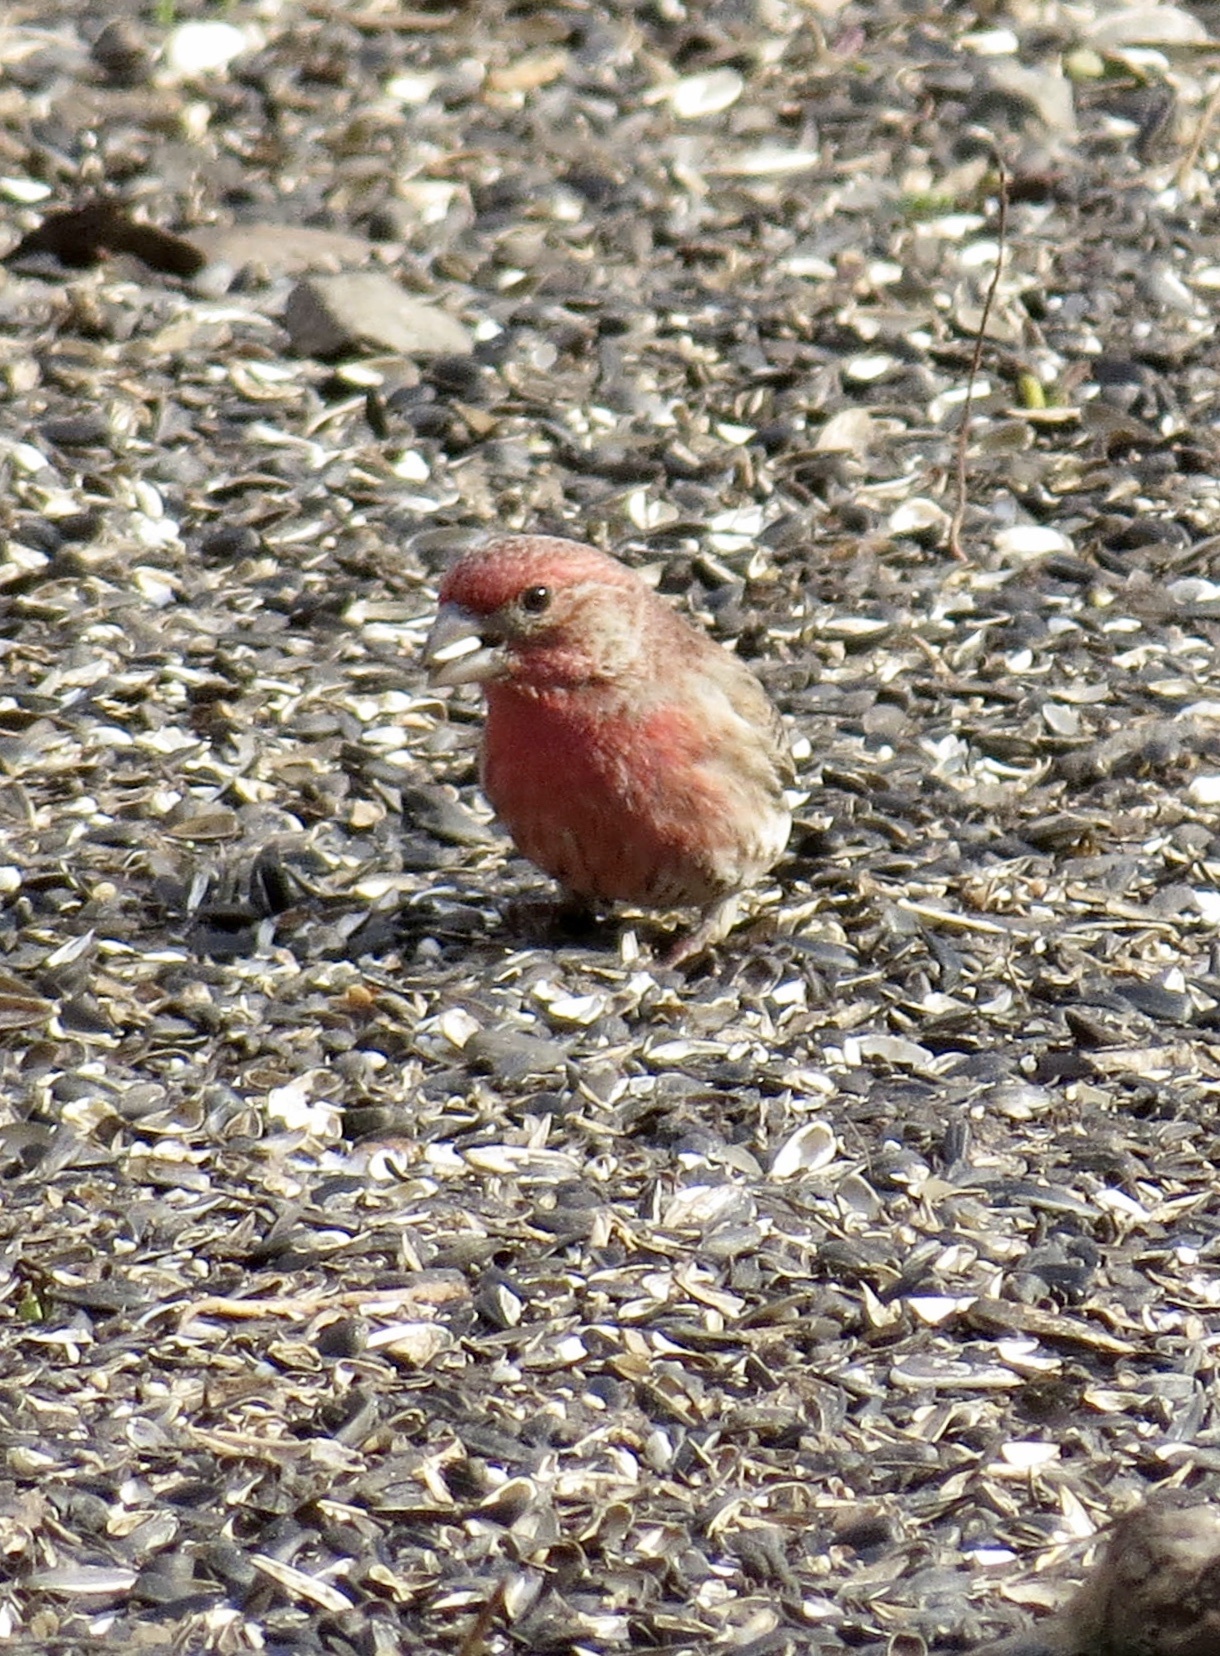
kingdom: Animalia
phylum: Chordata
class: Aves
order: Passeriformes
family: Fringillidae
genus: Haemorhous
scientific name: Haemorhous mexicanus
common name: House finch
